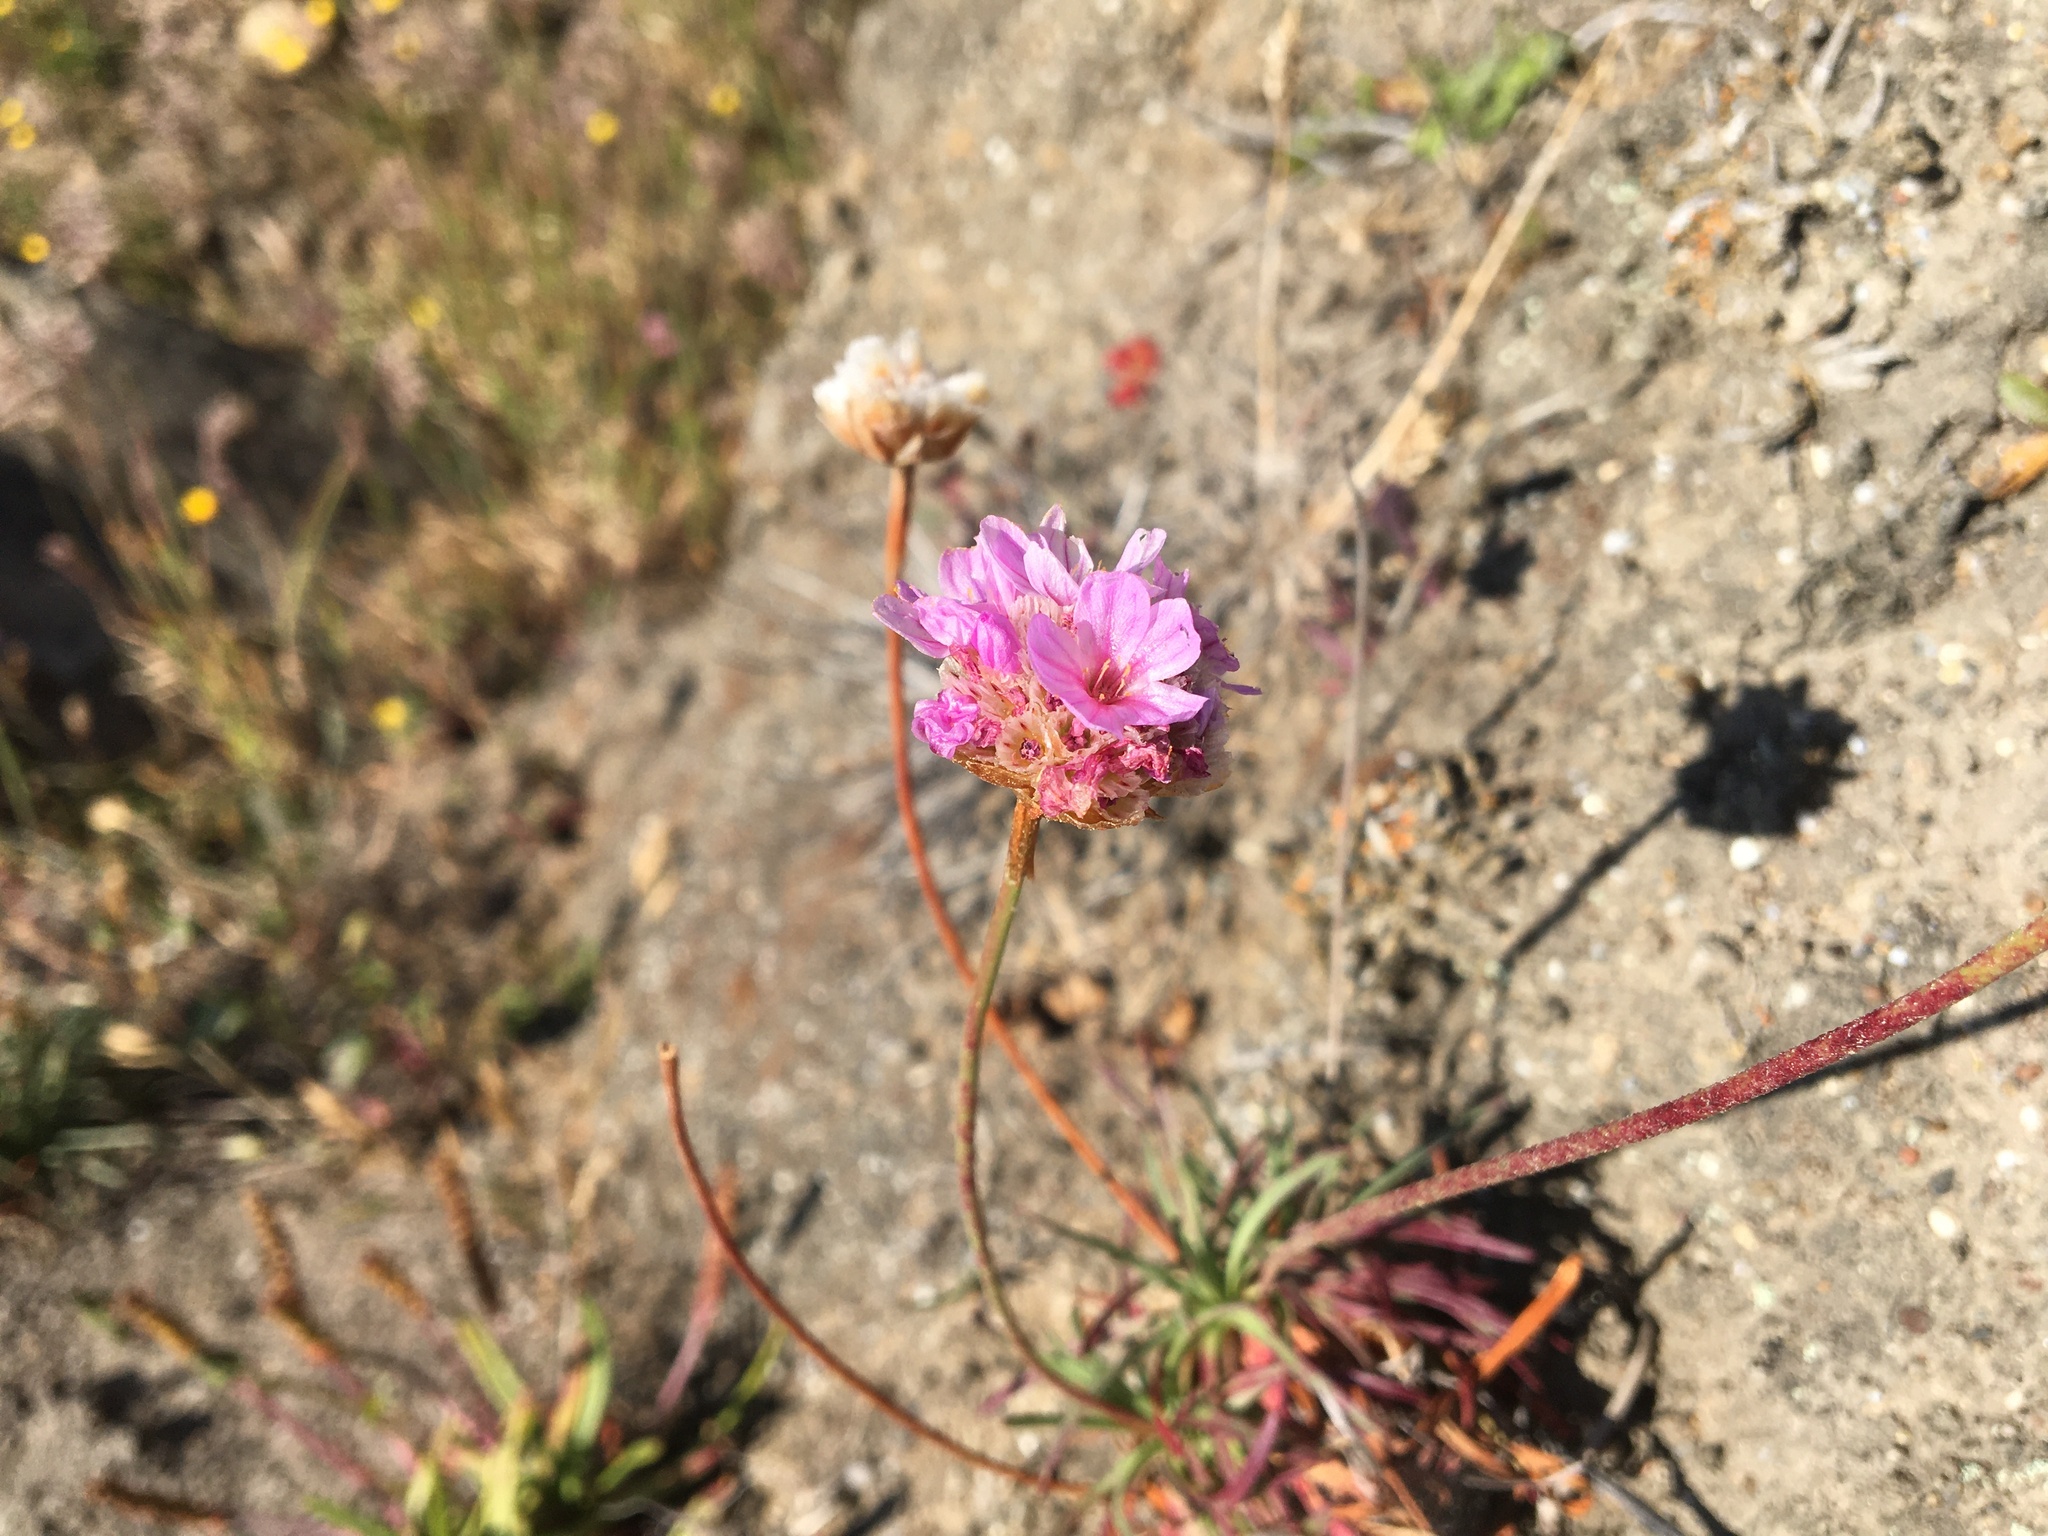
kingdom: Plantae
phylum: Tracheophyta
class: Magnoliopsida
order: Caryophyllales
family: Plumbaginaceae
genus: Armeria
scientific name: Armeria maritima
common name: Thrift
